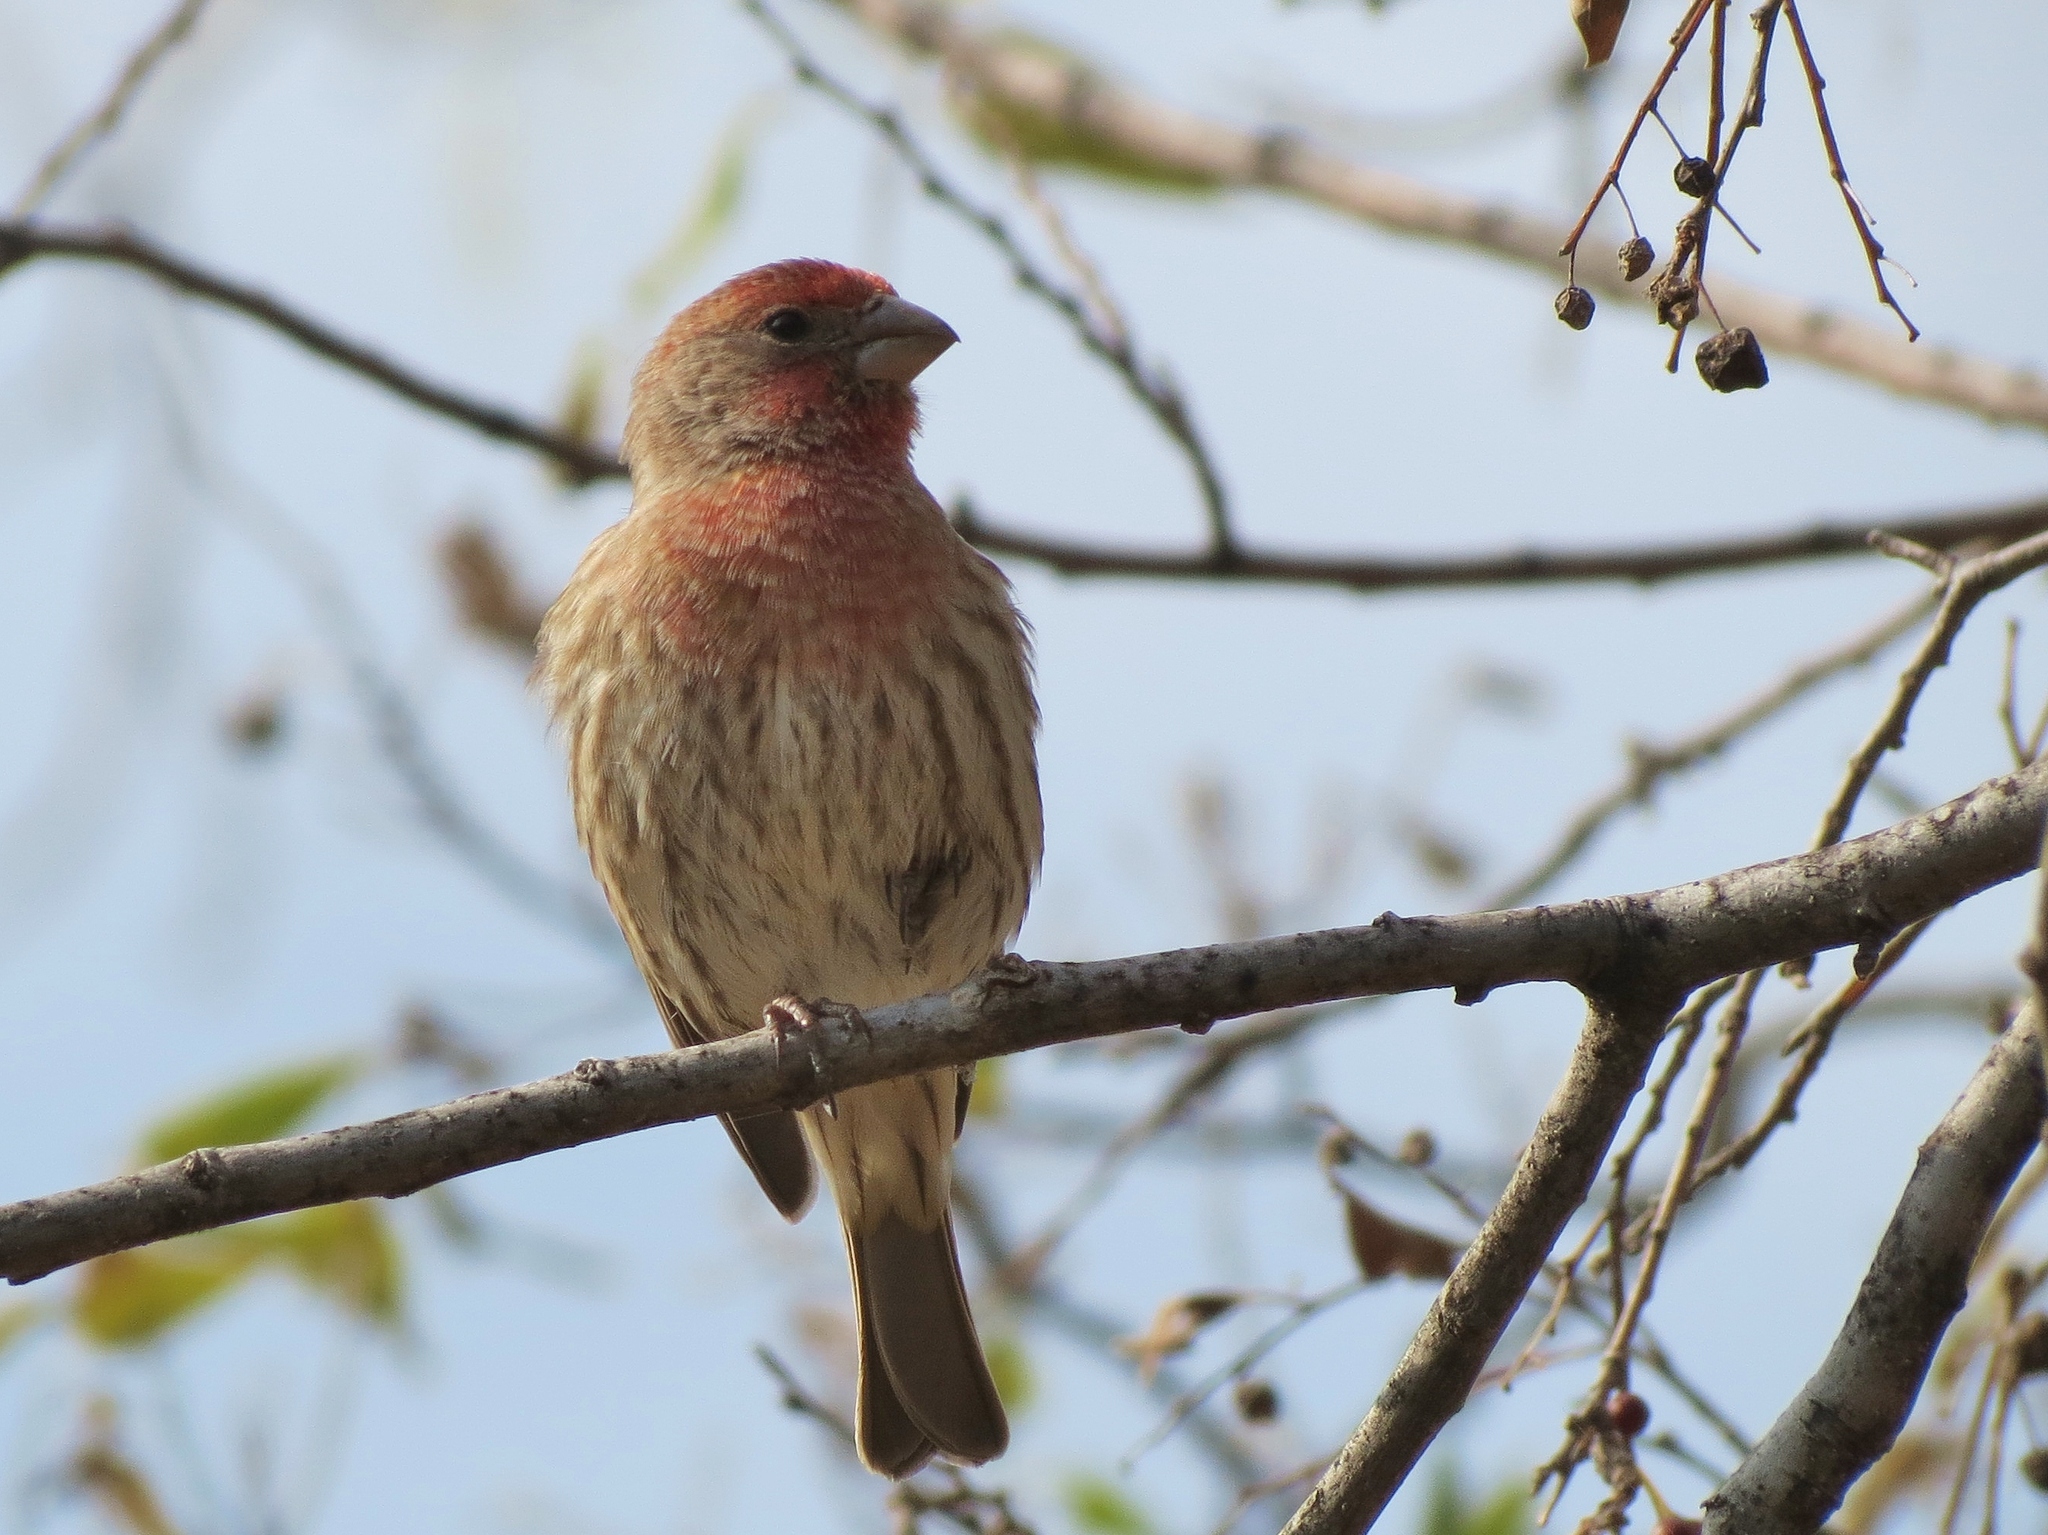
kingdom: Animalia
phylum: Chordata
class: Aves
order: Passeriformes
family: Fringillidae
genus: Haemorhous
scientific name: Haemorhous mexicanus
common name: House finch
